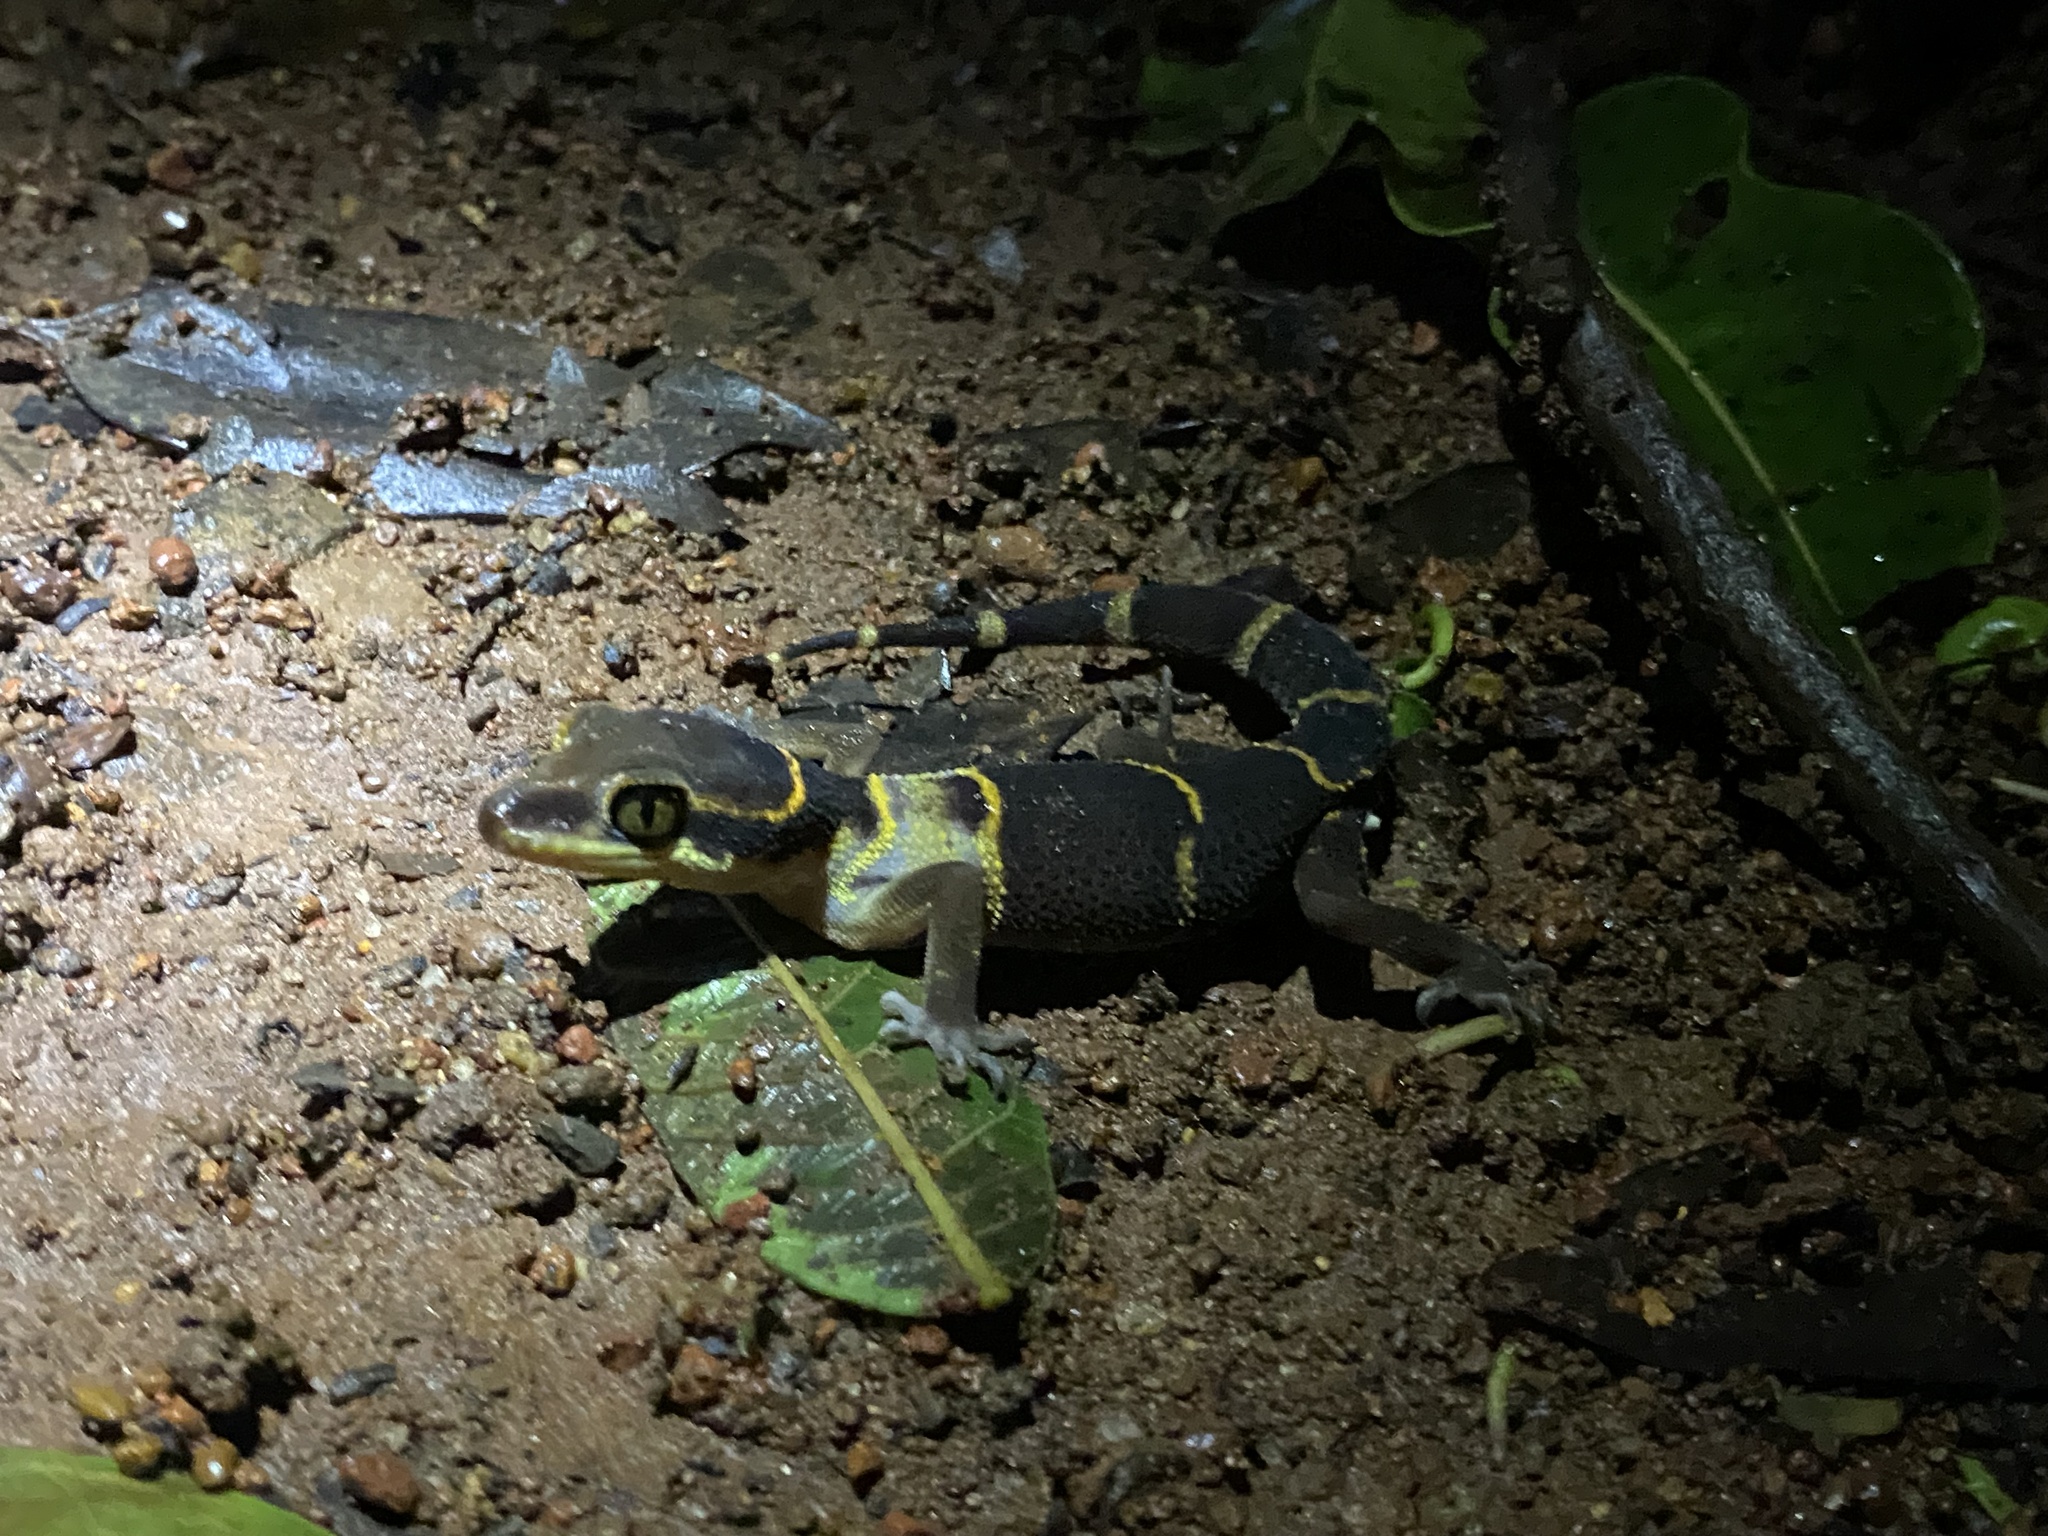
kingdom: Animalia
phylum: Chordata
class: Squamata
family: Gekkonidae
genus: Cyrtodactylus
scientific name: Cyrtodactylus albofasciatus
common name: Boulenger’s indian gecko
